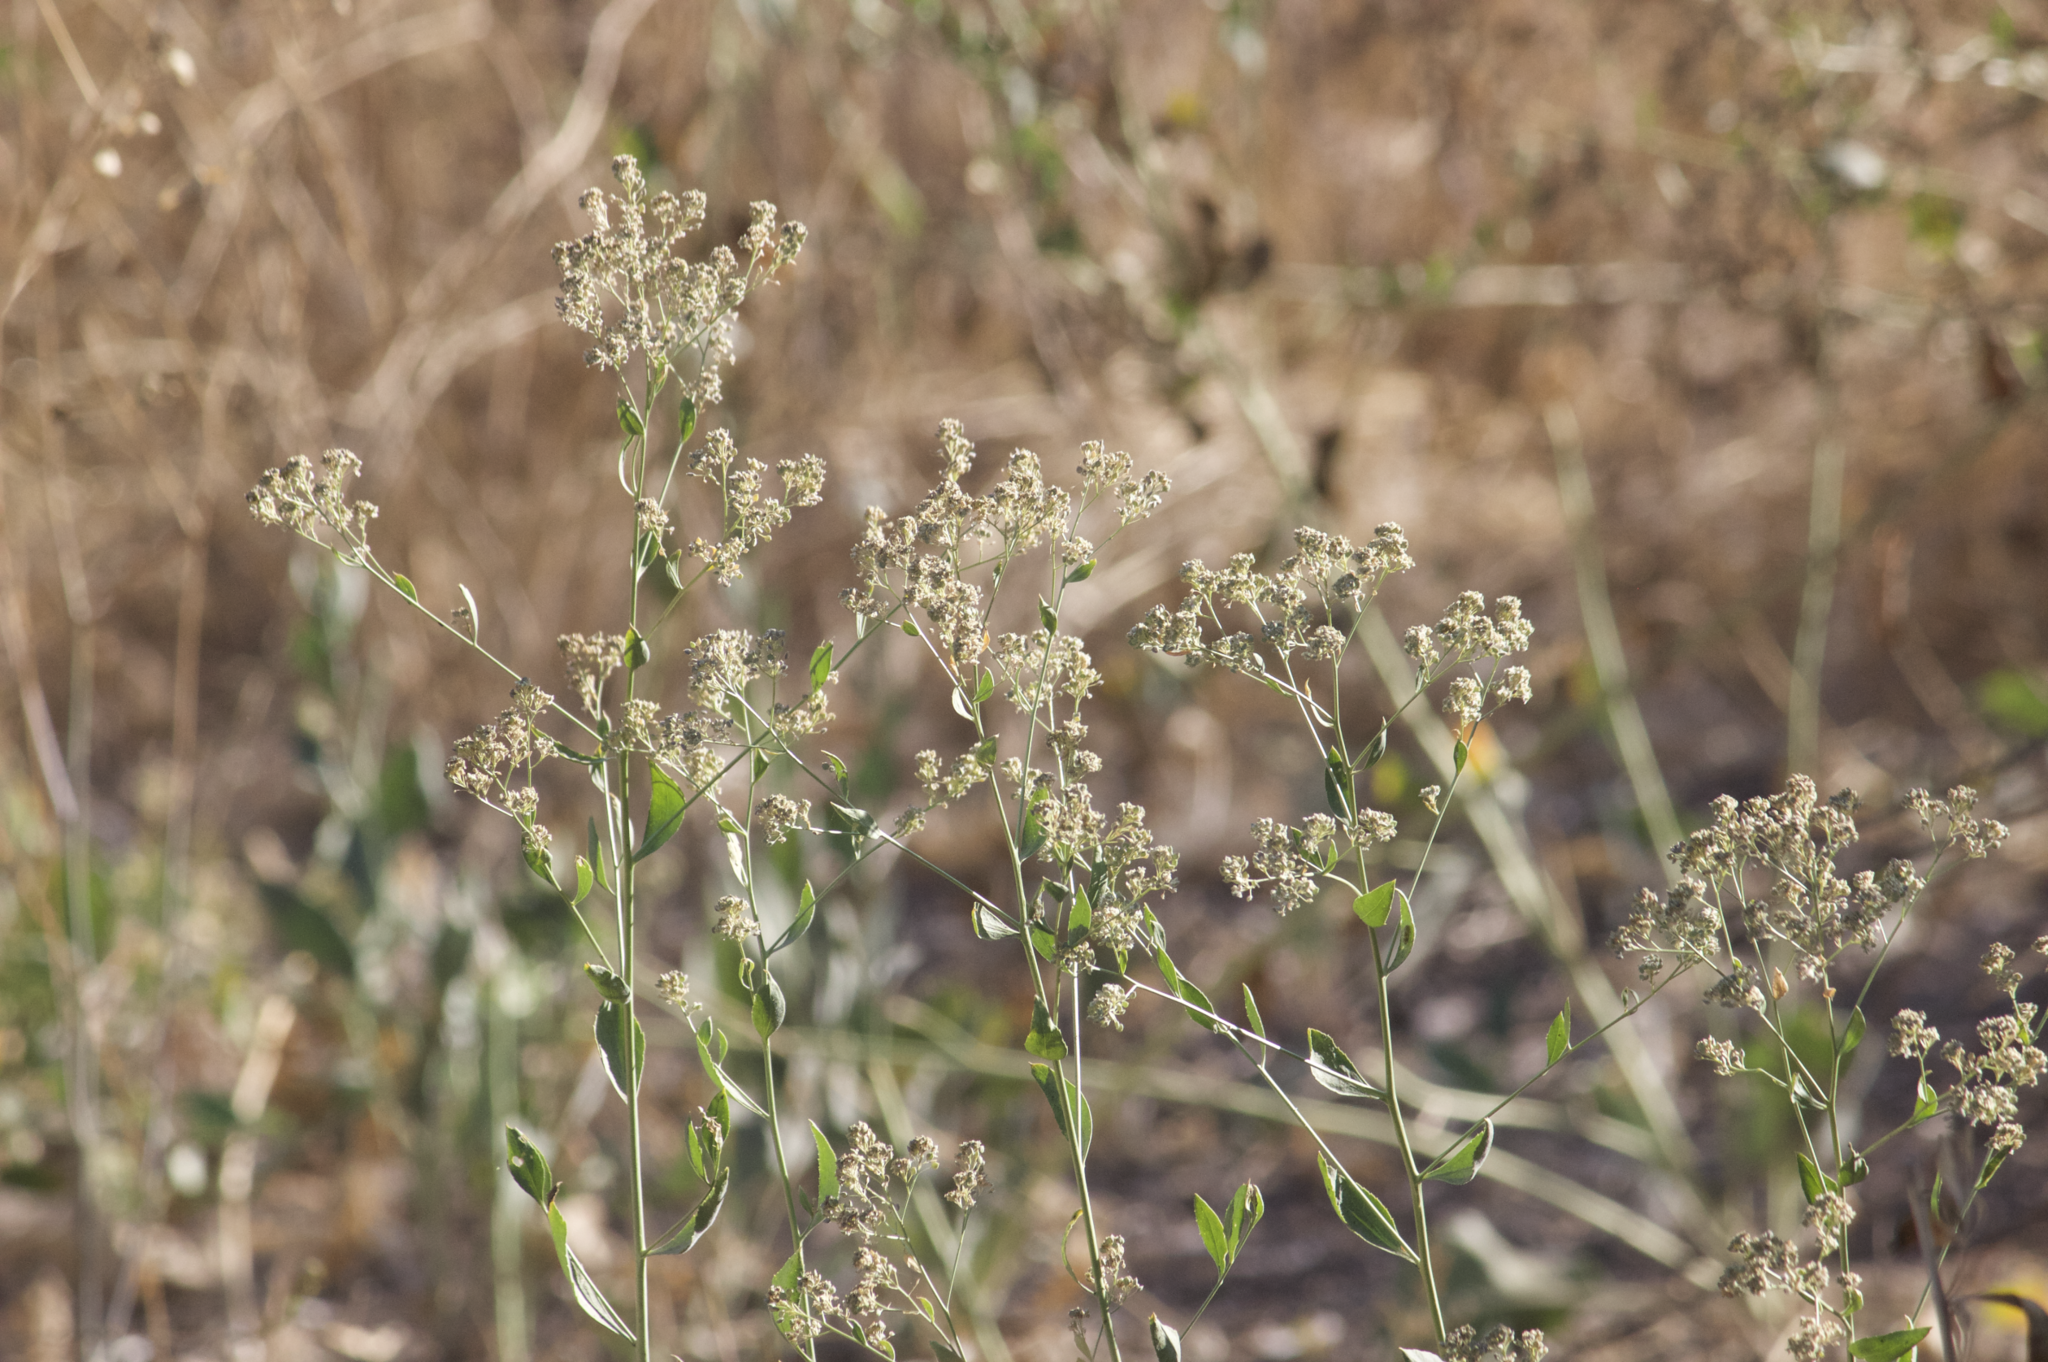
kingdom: Plantae
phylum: Tracheophyta
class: Magnoliopsida
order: Brassicales
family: Brassicaceae
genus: Lepidium
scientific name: Lepidium latifolium
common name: Dittander
